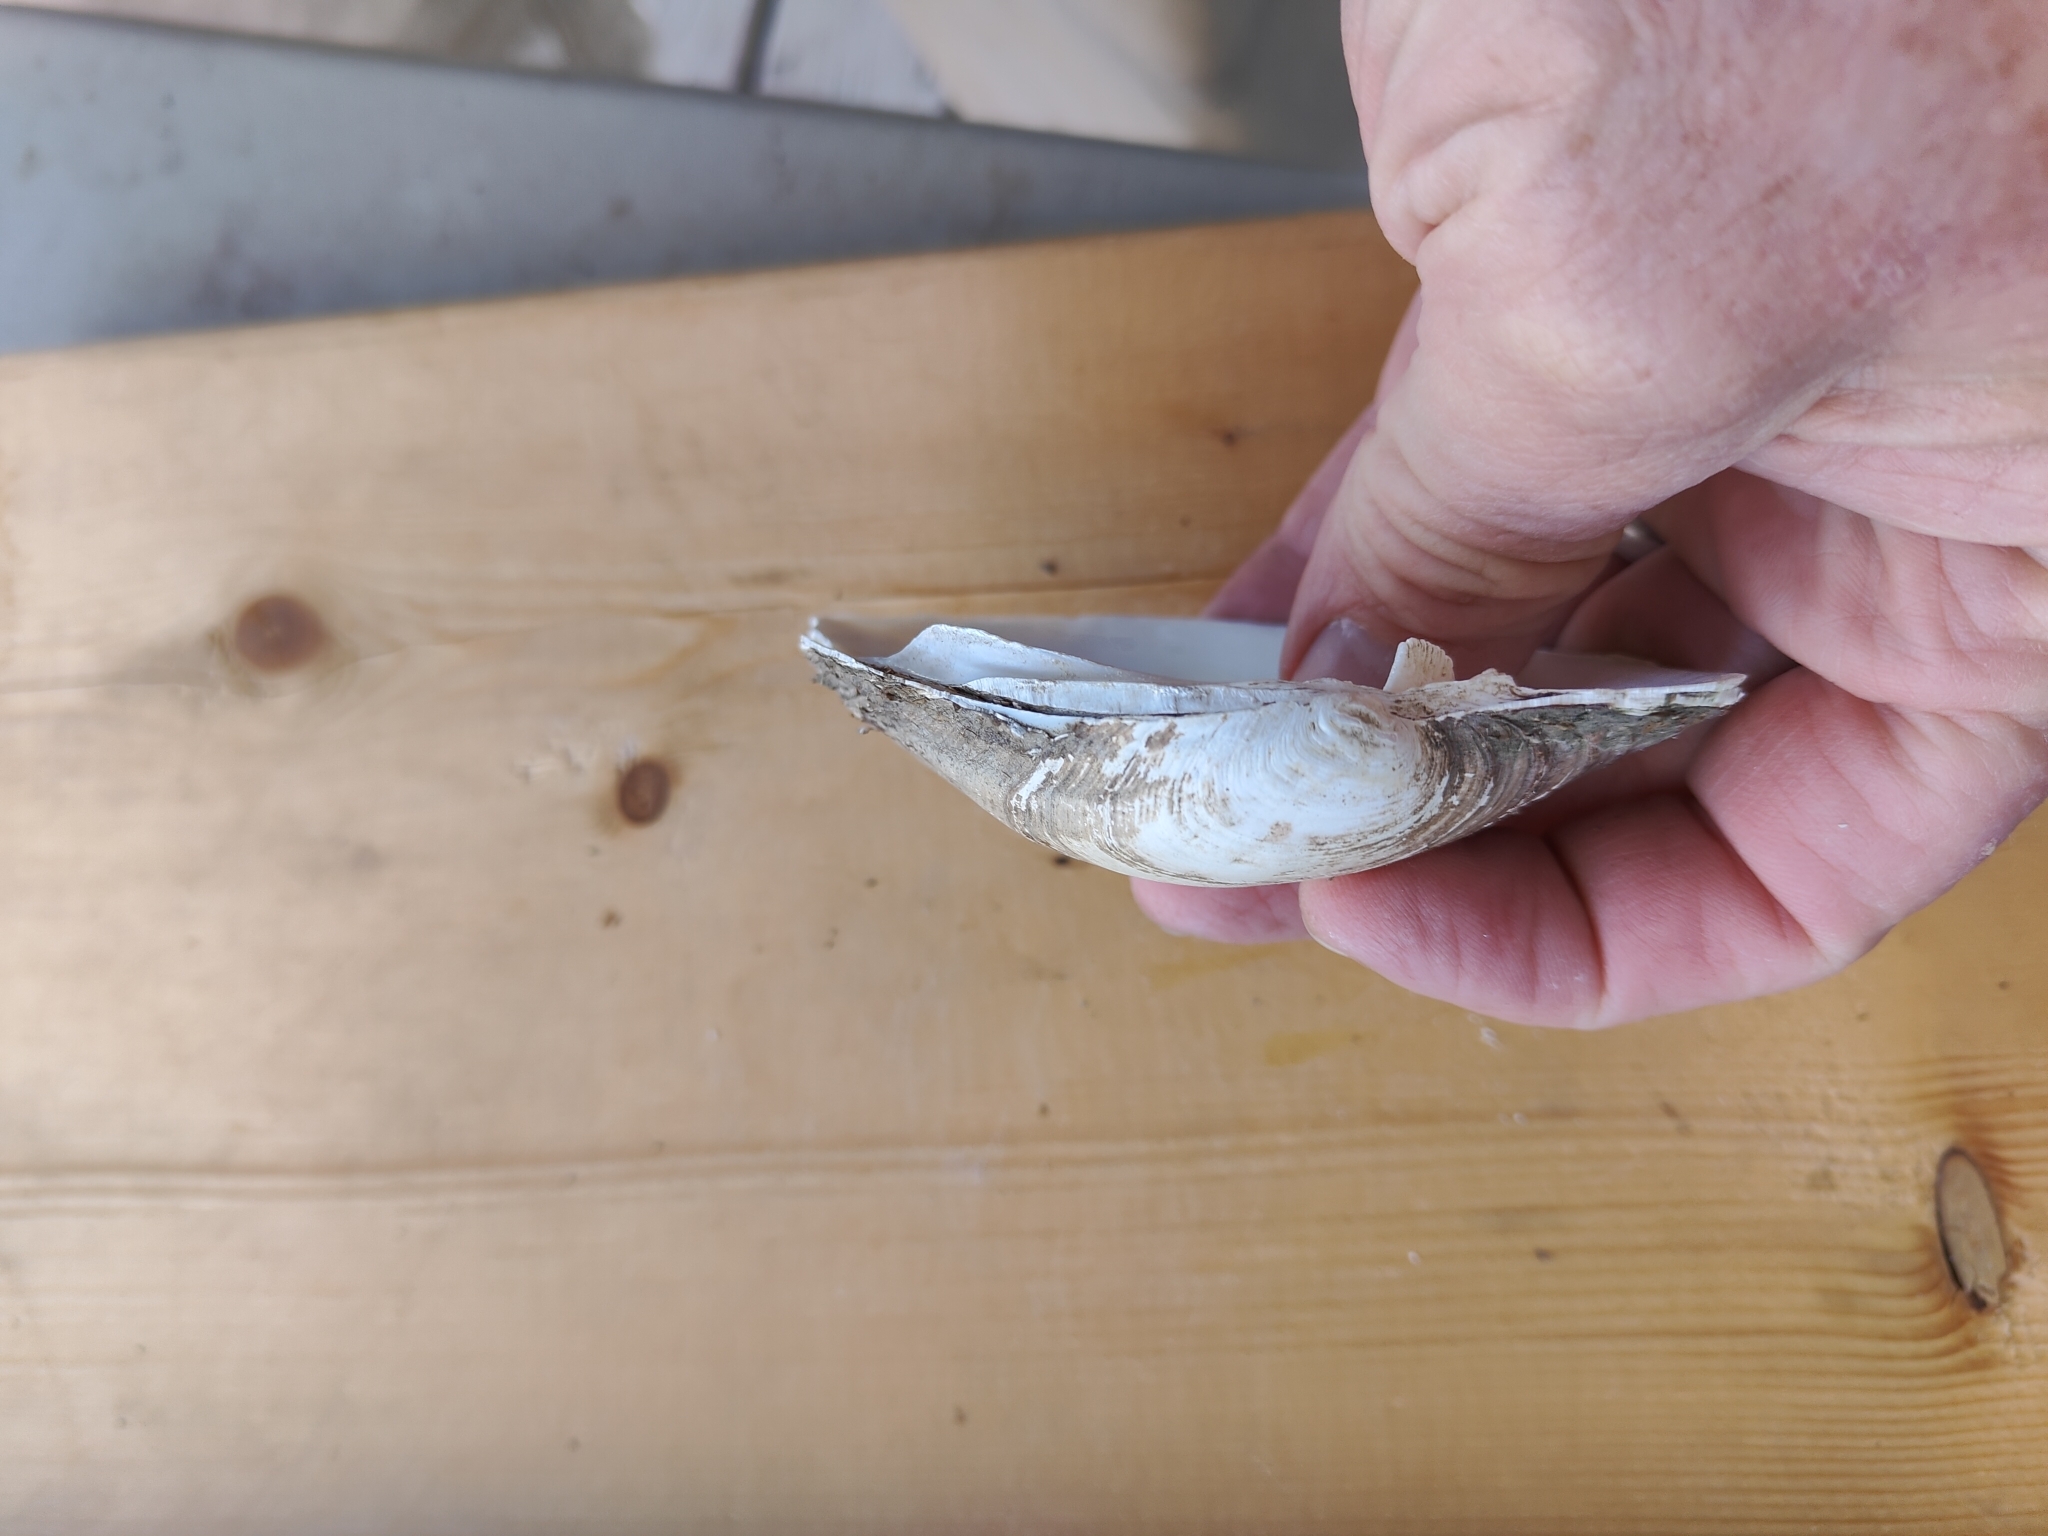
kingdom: Animalia
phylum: Mollusca
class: Bivalvia
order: Unionida
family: Unionidae
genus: Lampsilis
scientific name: Lampsilis cardium
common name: Plain pocketbook
